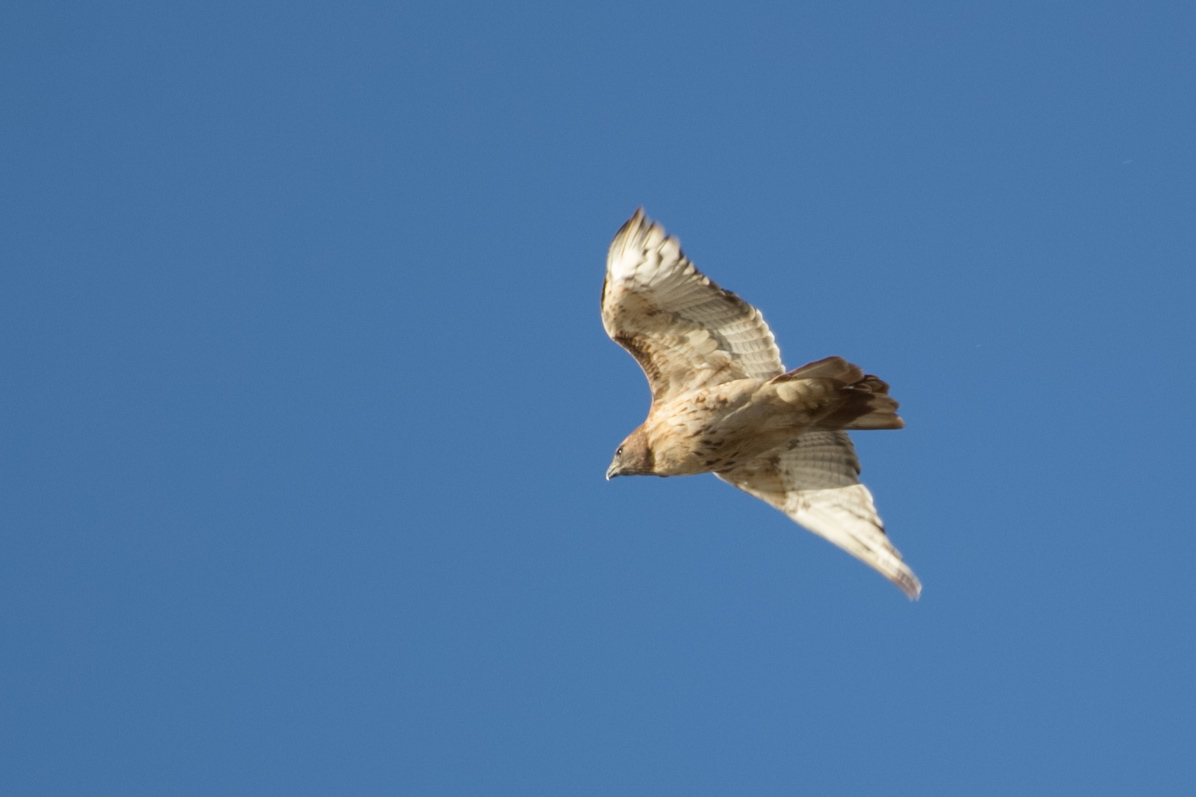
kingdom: Animalia
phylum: Chordata
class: Aves
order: Accipitriformes
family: Accipitridae
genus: Buteo
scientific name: Buteo jamaicensis
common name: Red-tailed hawk
